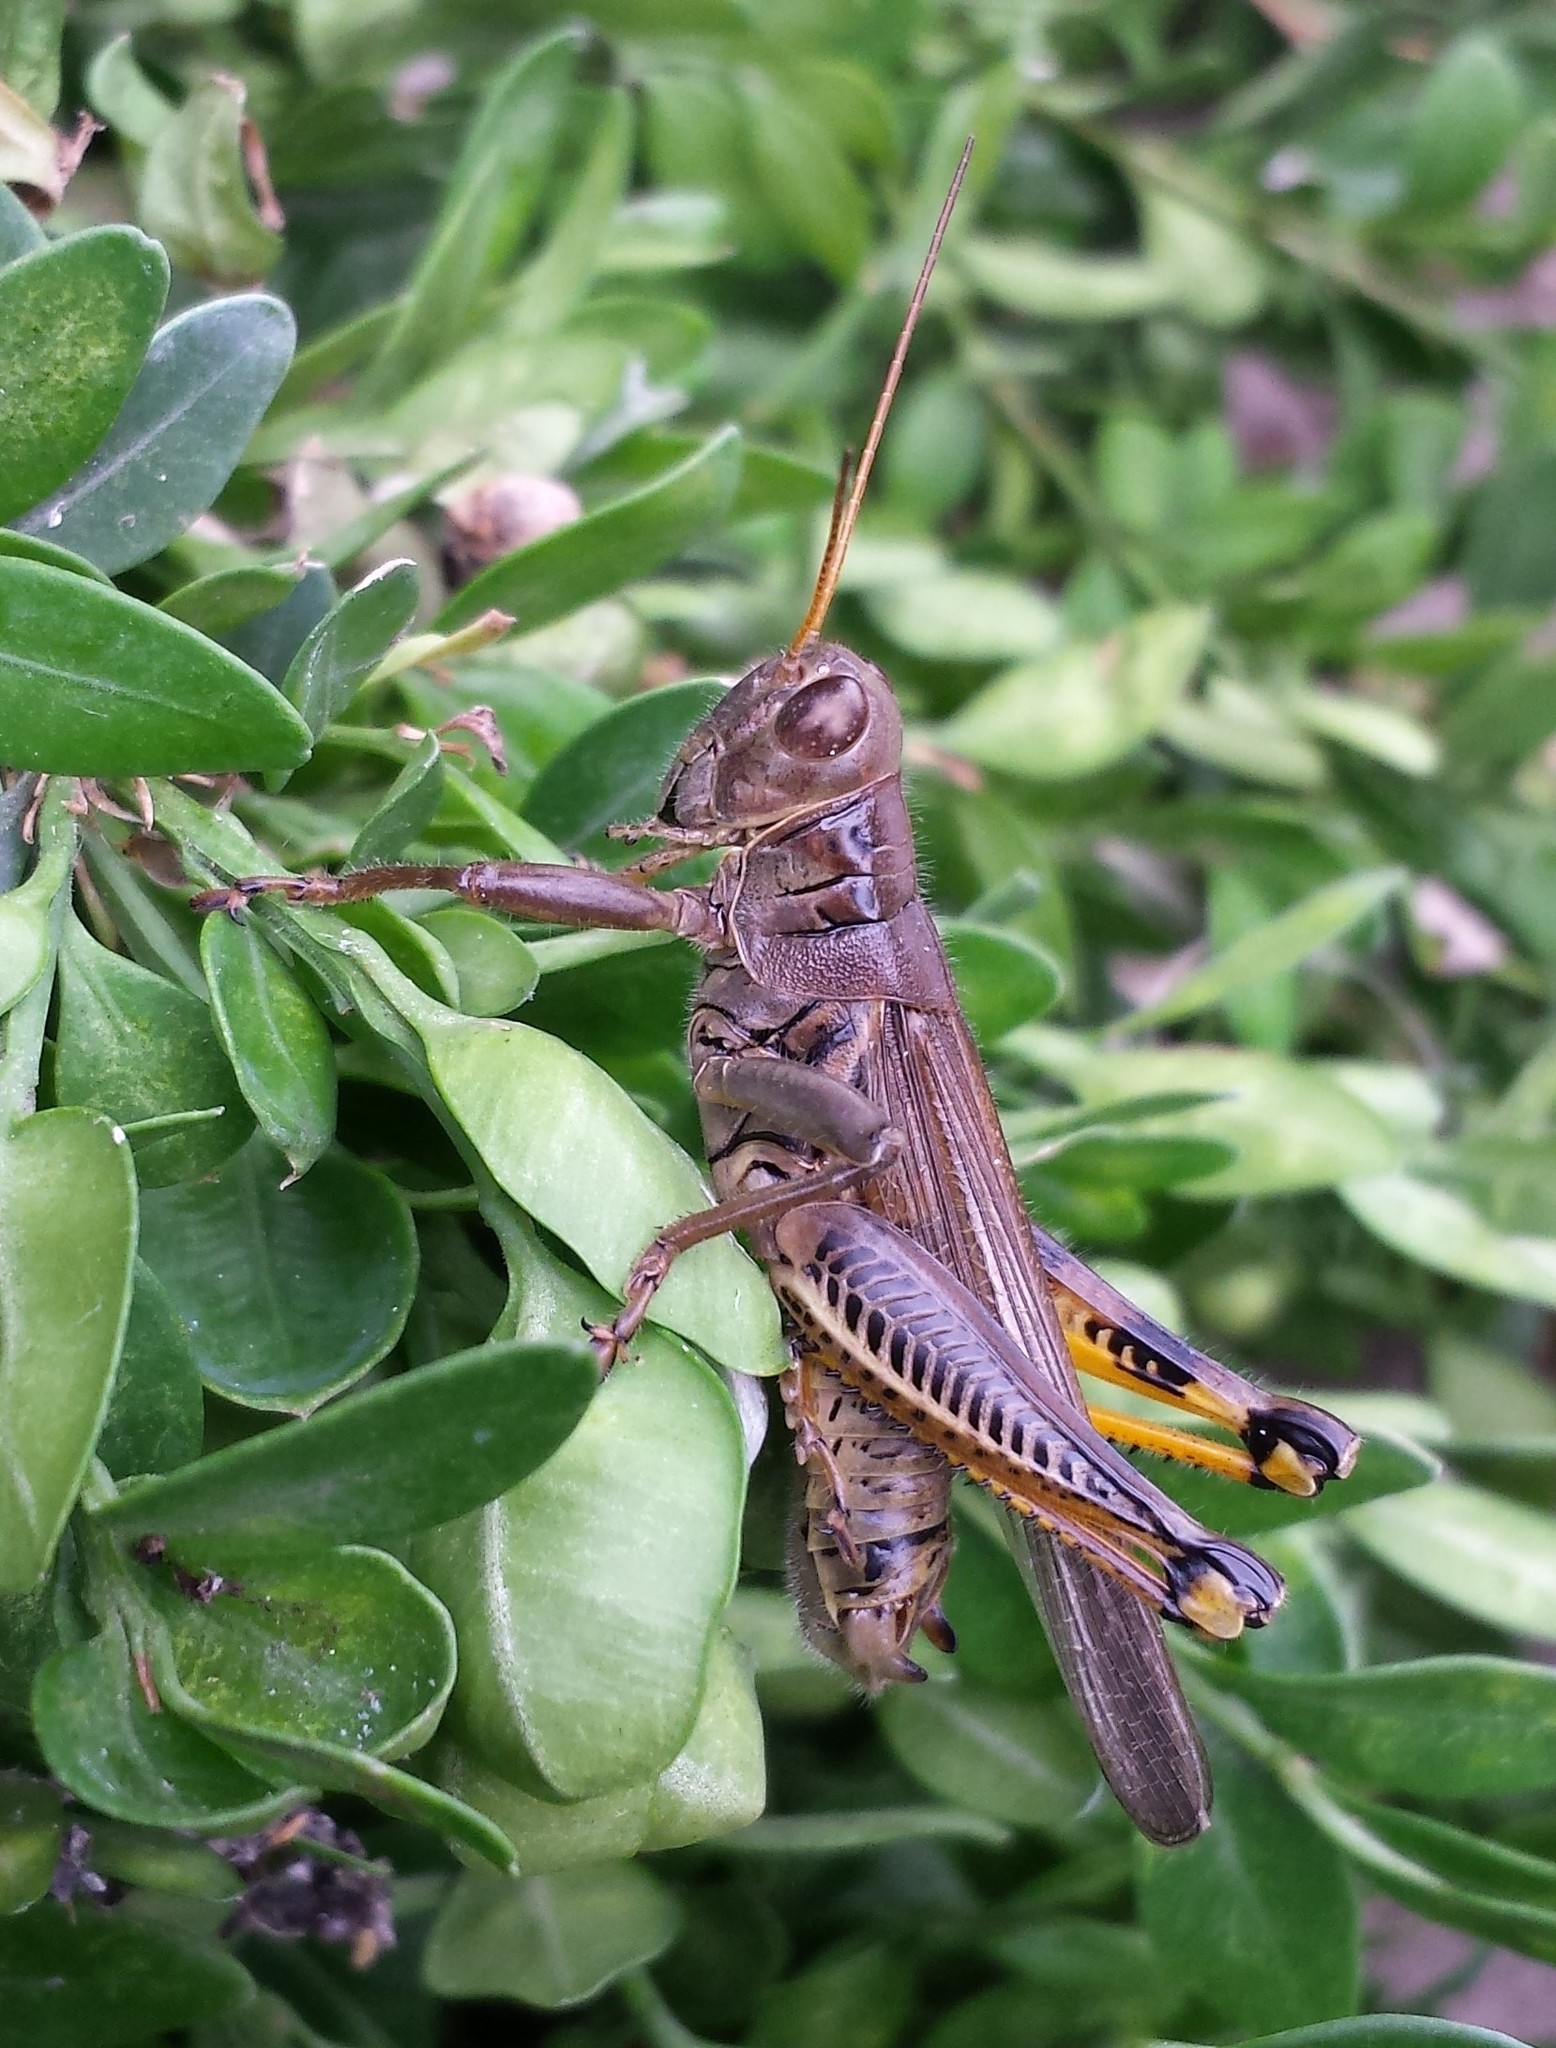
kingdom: Animalia
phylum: Arthropoda
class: Insecta
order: Orthoptera
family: Acrididae
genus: Melanoplus
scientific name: Melanoplus differentialis
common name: Differential grasshopper
